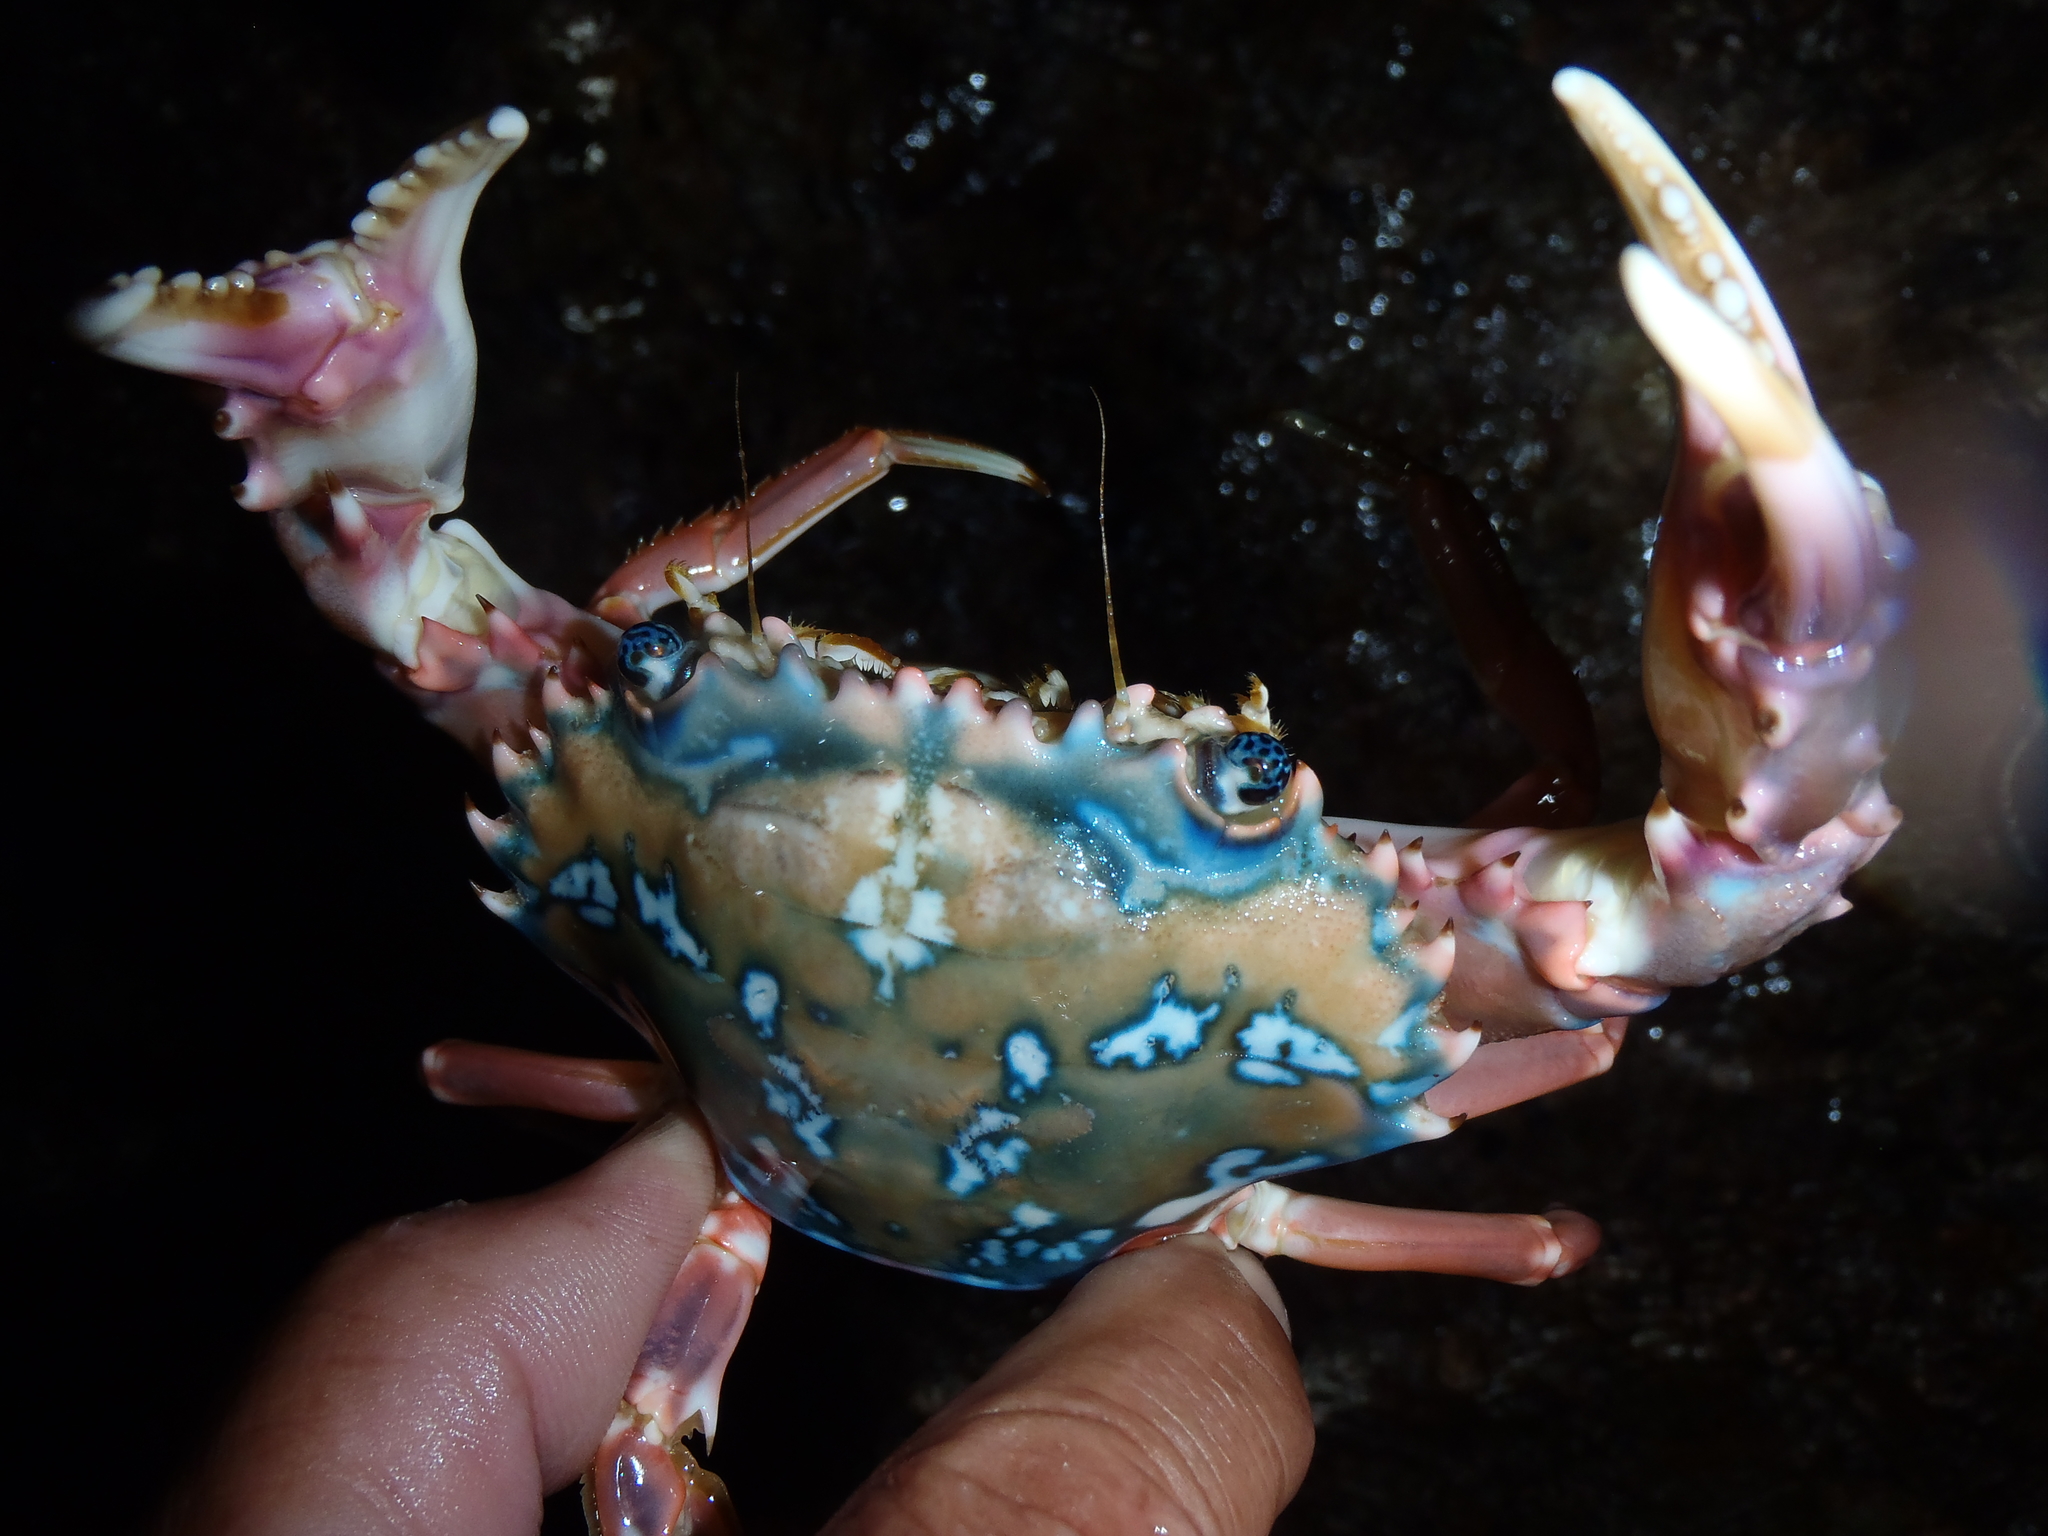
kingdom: Animalia
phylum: Arthropoda
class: Malacostraca
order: Decapoda
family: Portunidae
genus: Goniosupradens
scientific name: Goniosupradens erythrodactylus
